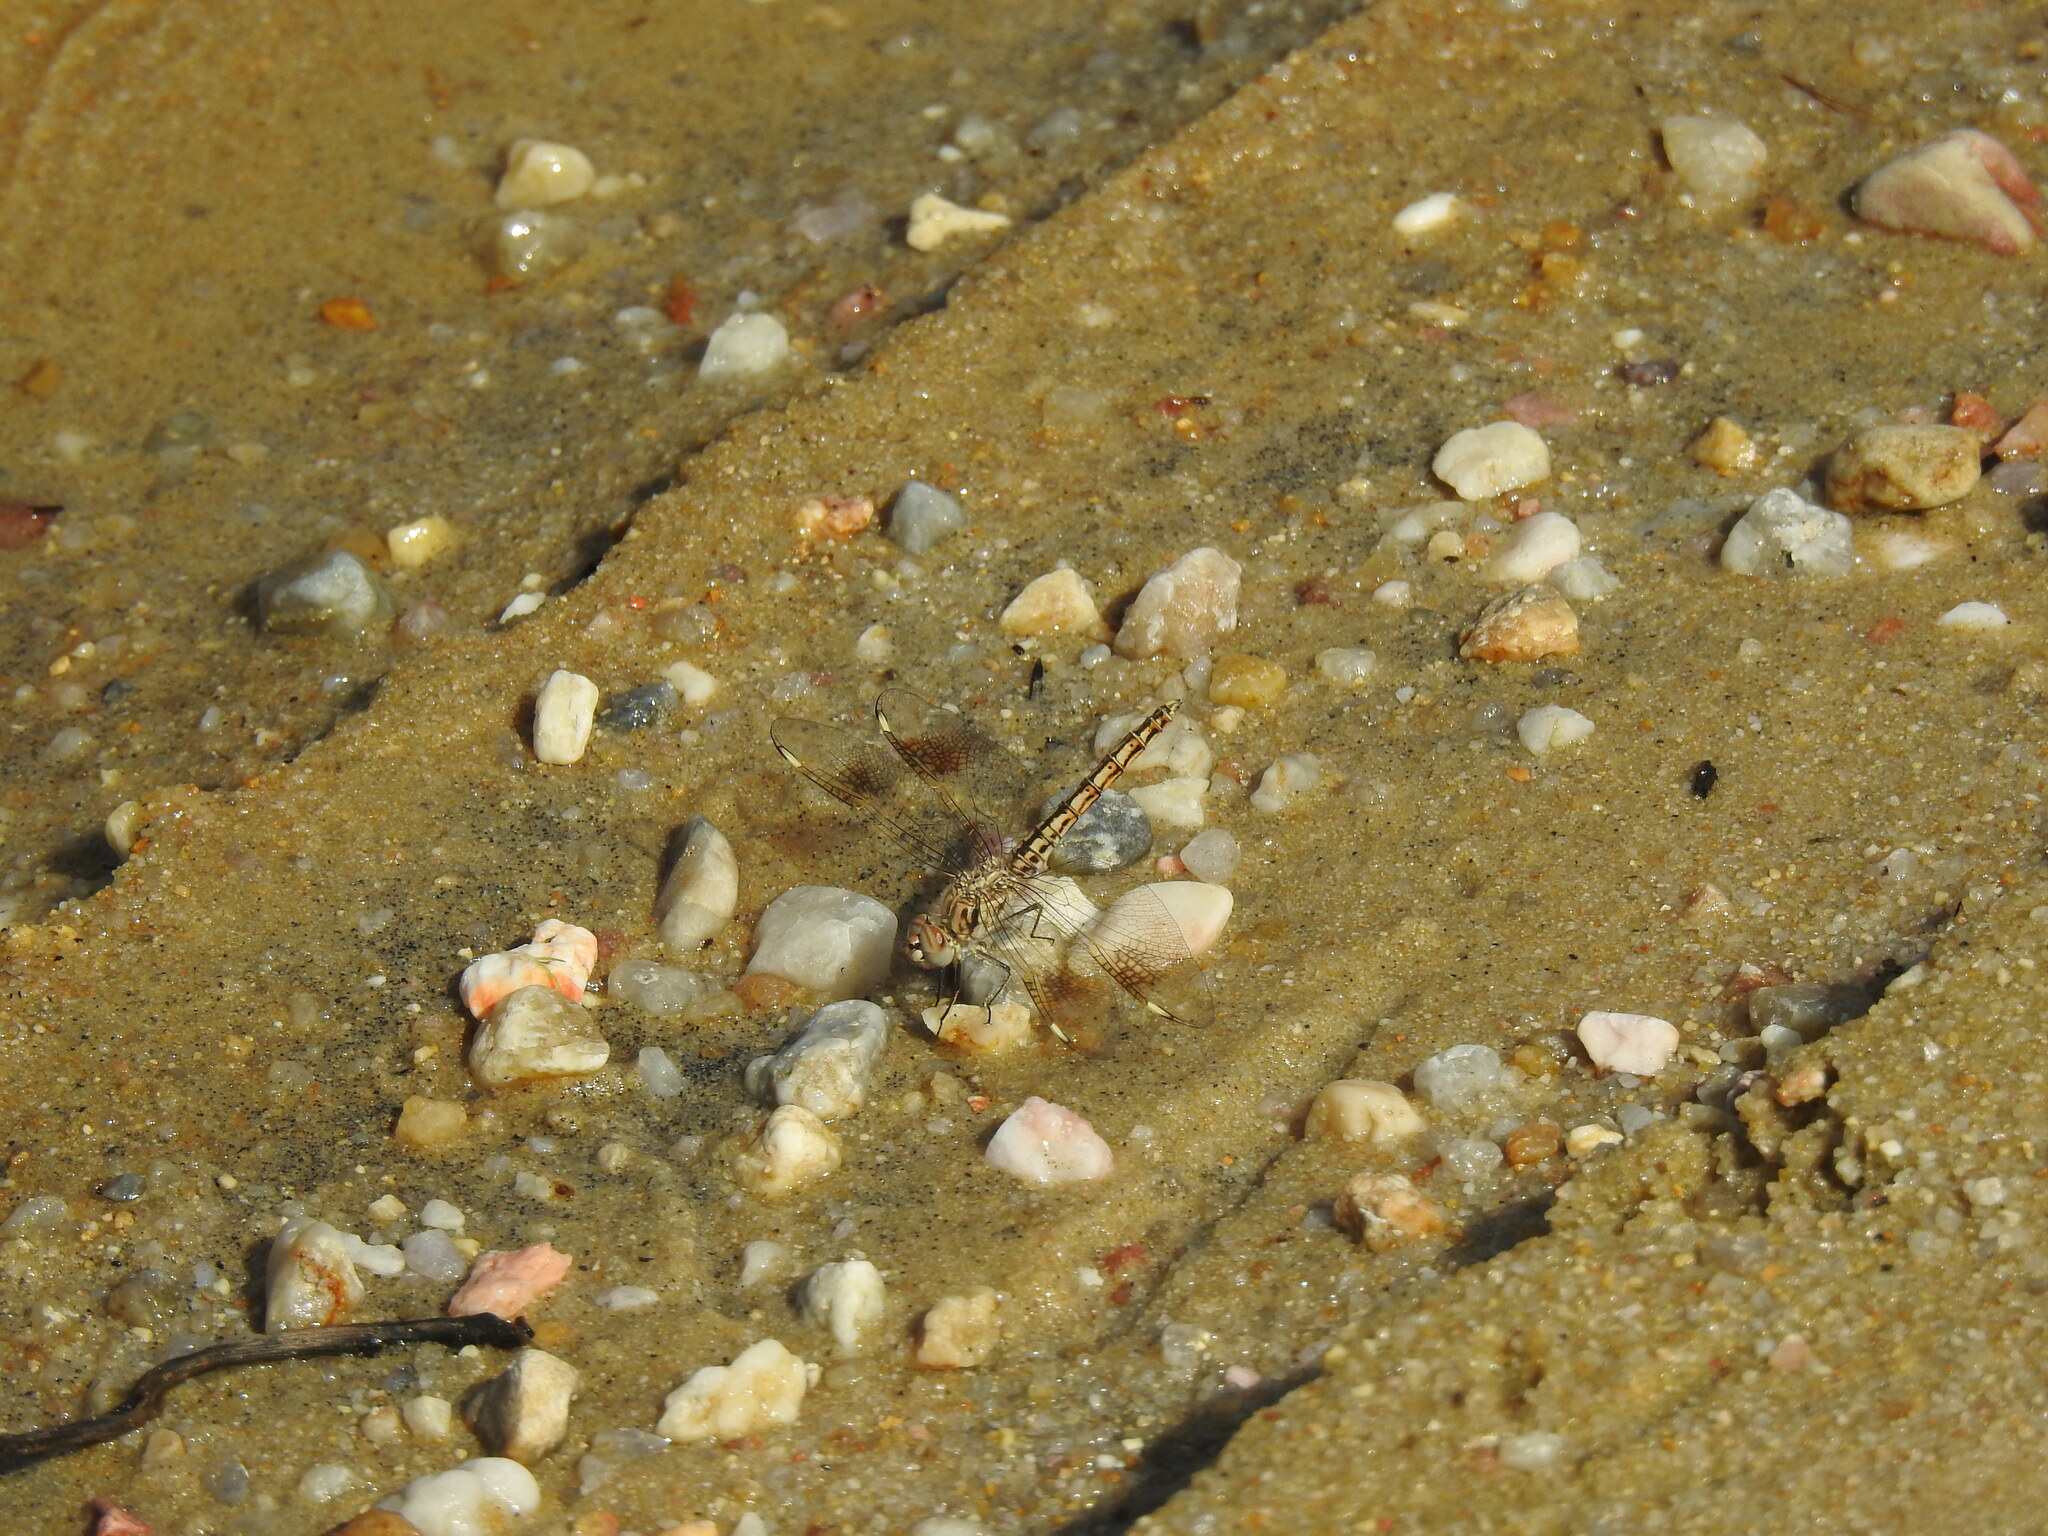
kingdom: Animalia
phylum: Arthropoda
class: Insecta
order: Odonata
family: Libellulidae
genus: Brachythemis
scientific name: Brachythemis impartita
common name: Banded groundling
